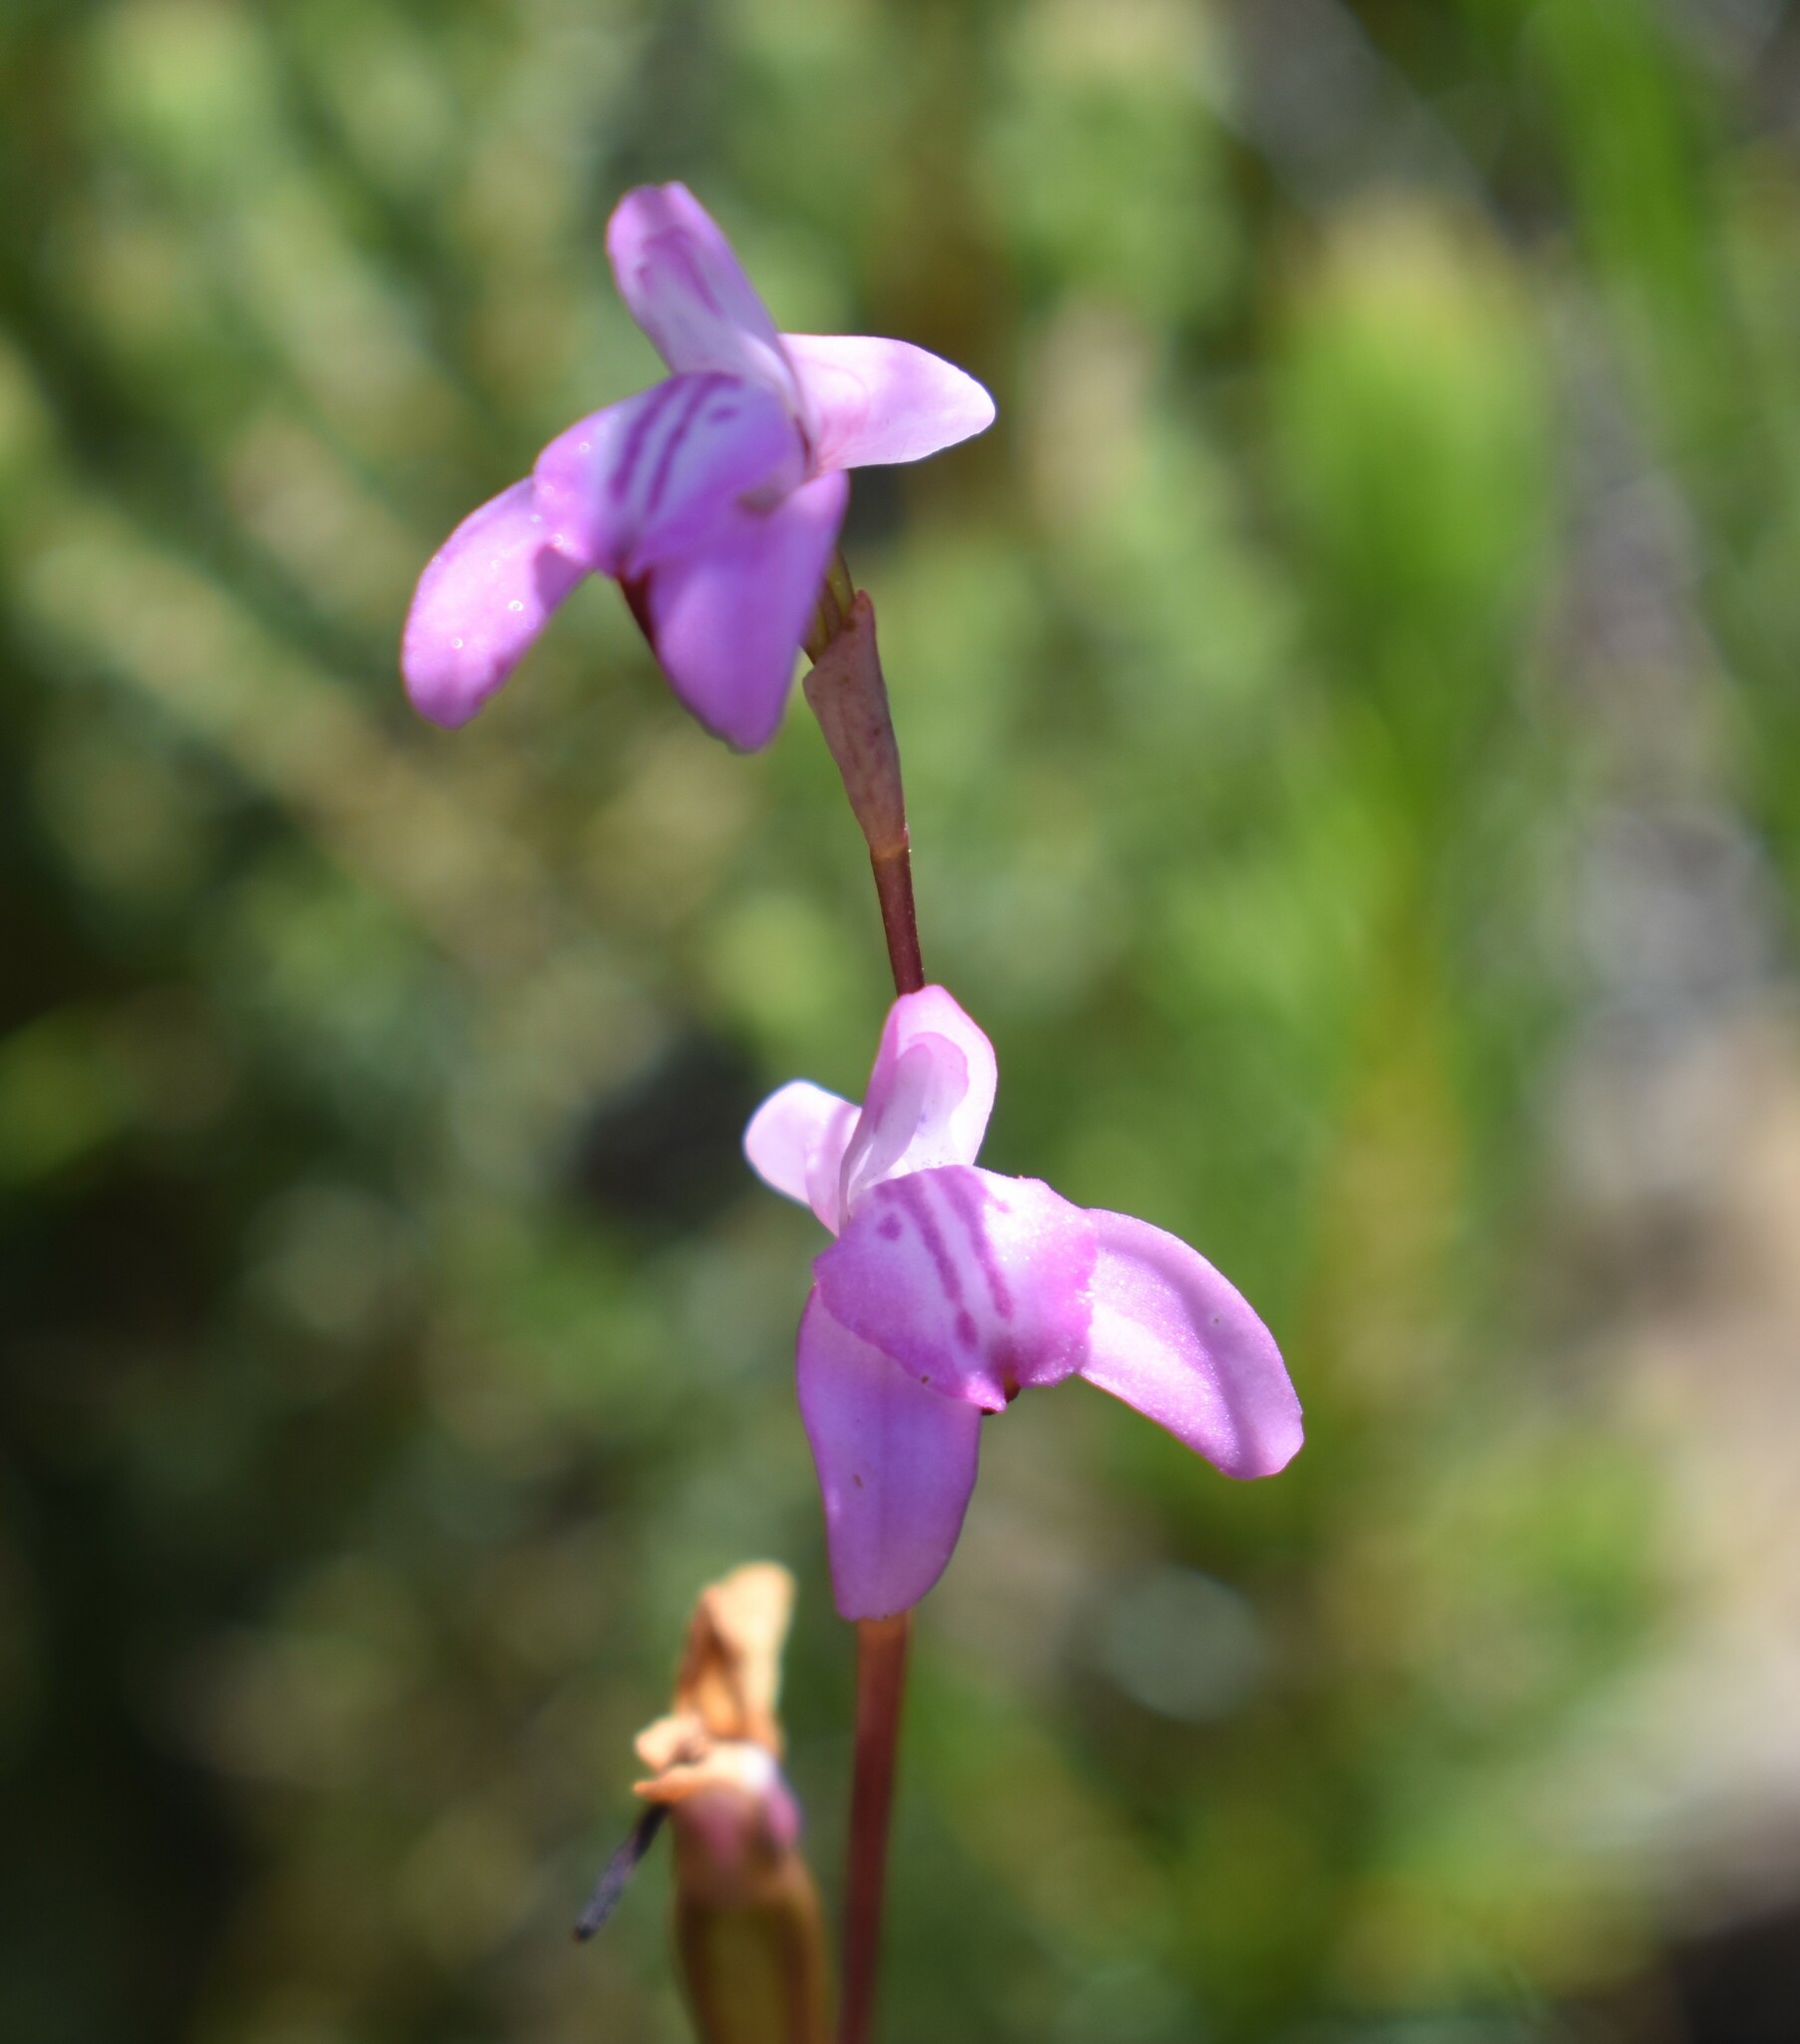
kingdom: Plantae
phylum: Tracheophyta
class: Liliopsida
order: Asparagales
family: Orchidaceae
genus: Disa
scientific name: Disa inflexa
